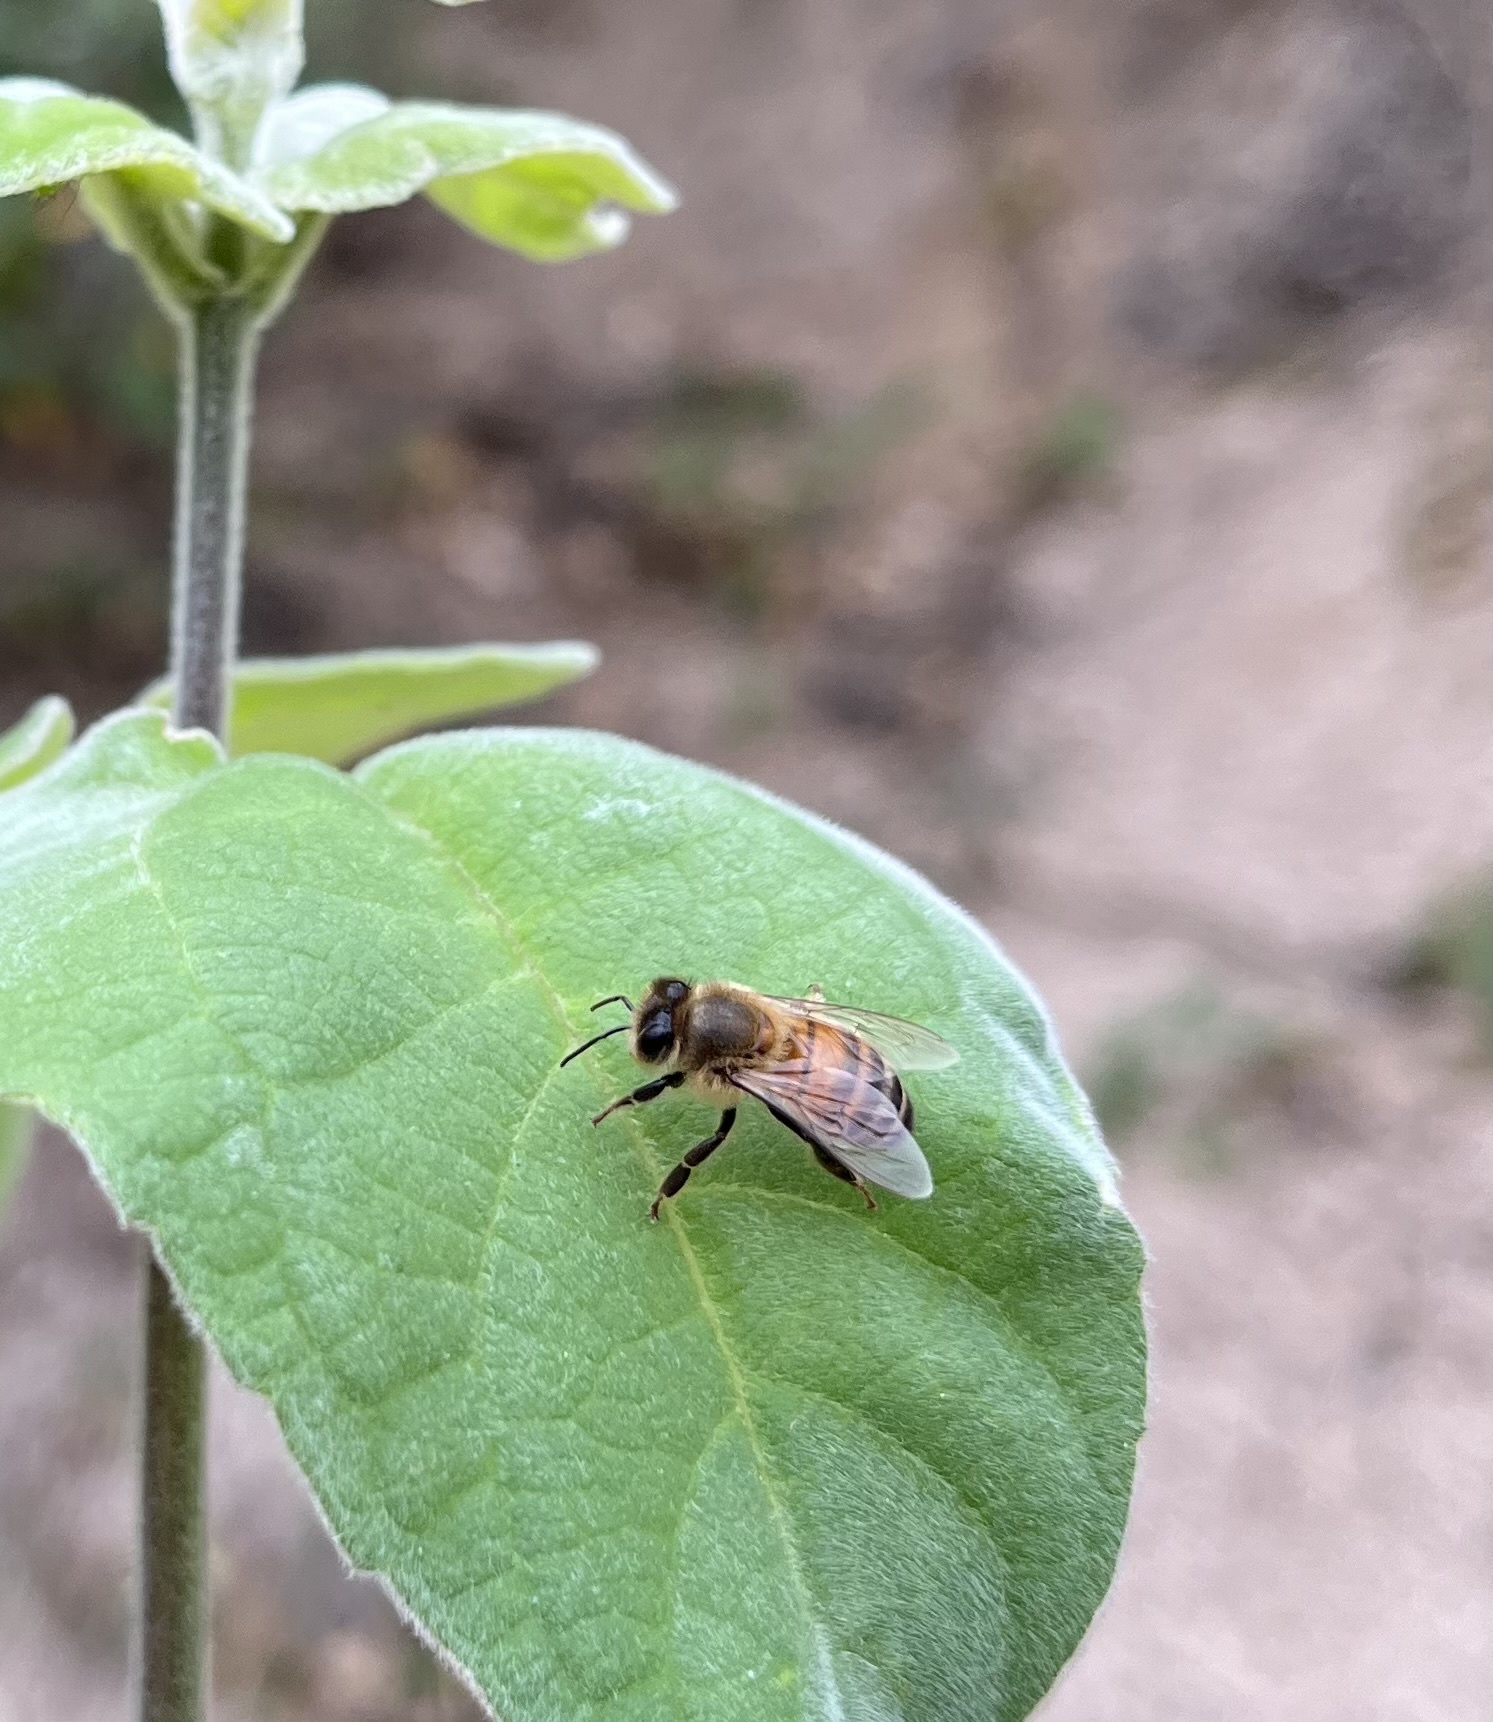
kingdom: Animalia
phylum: Arthropoda
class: Insecta
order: Hymenoptera
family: Apidae
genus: Apis
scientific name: Apis mellifera
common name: Honey bee
